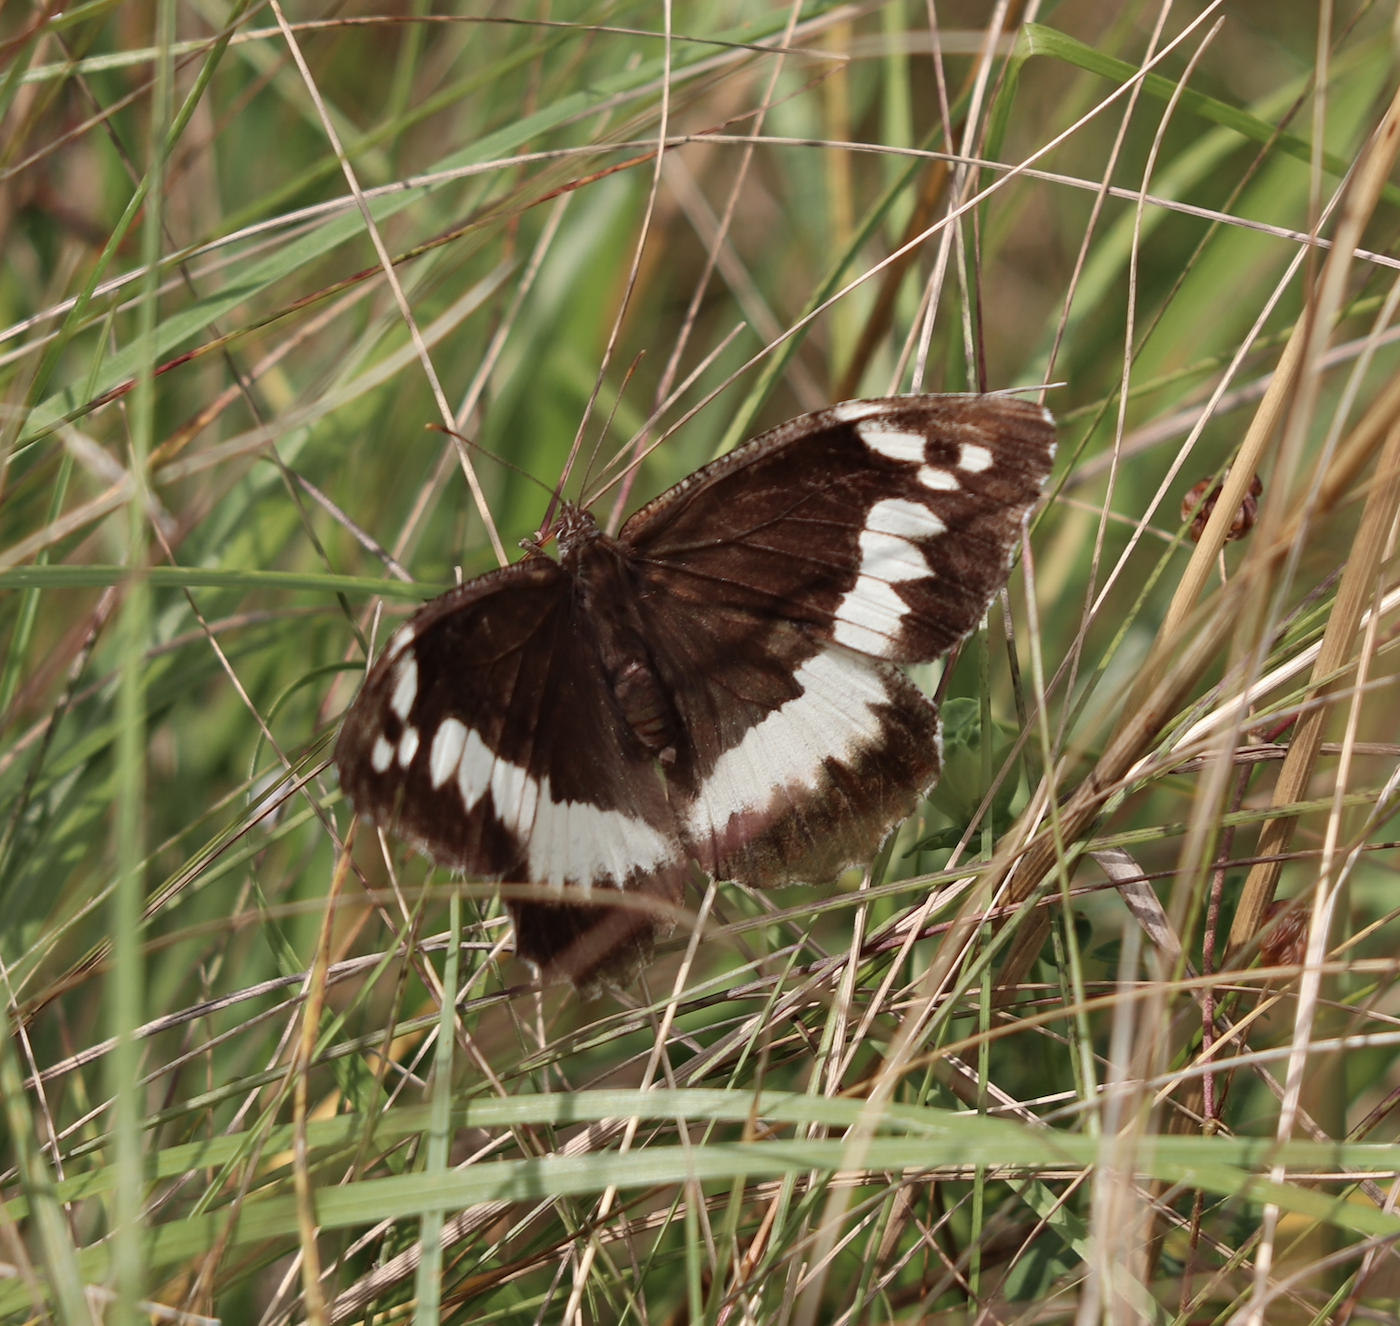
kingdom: Animalia
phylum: Arthropoda
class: Insecta
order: Lepidoptera
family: Lycaenidae
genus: Loweia
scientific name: Loweia tityrus
